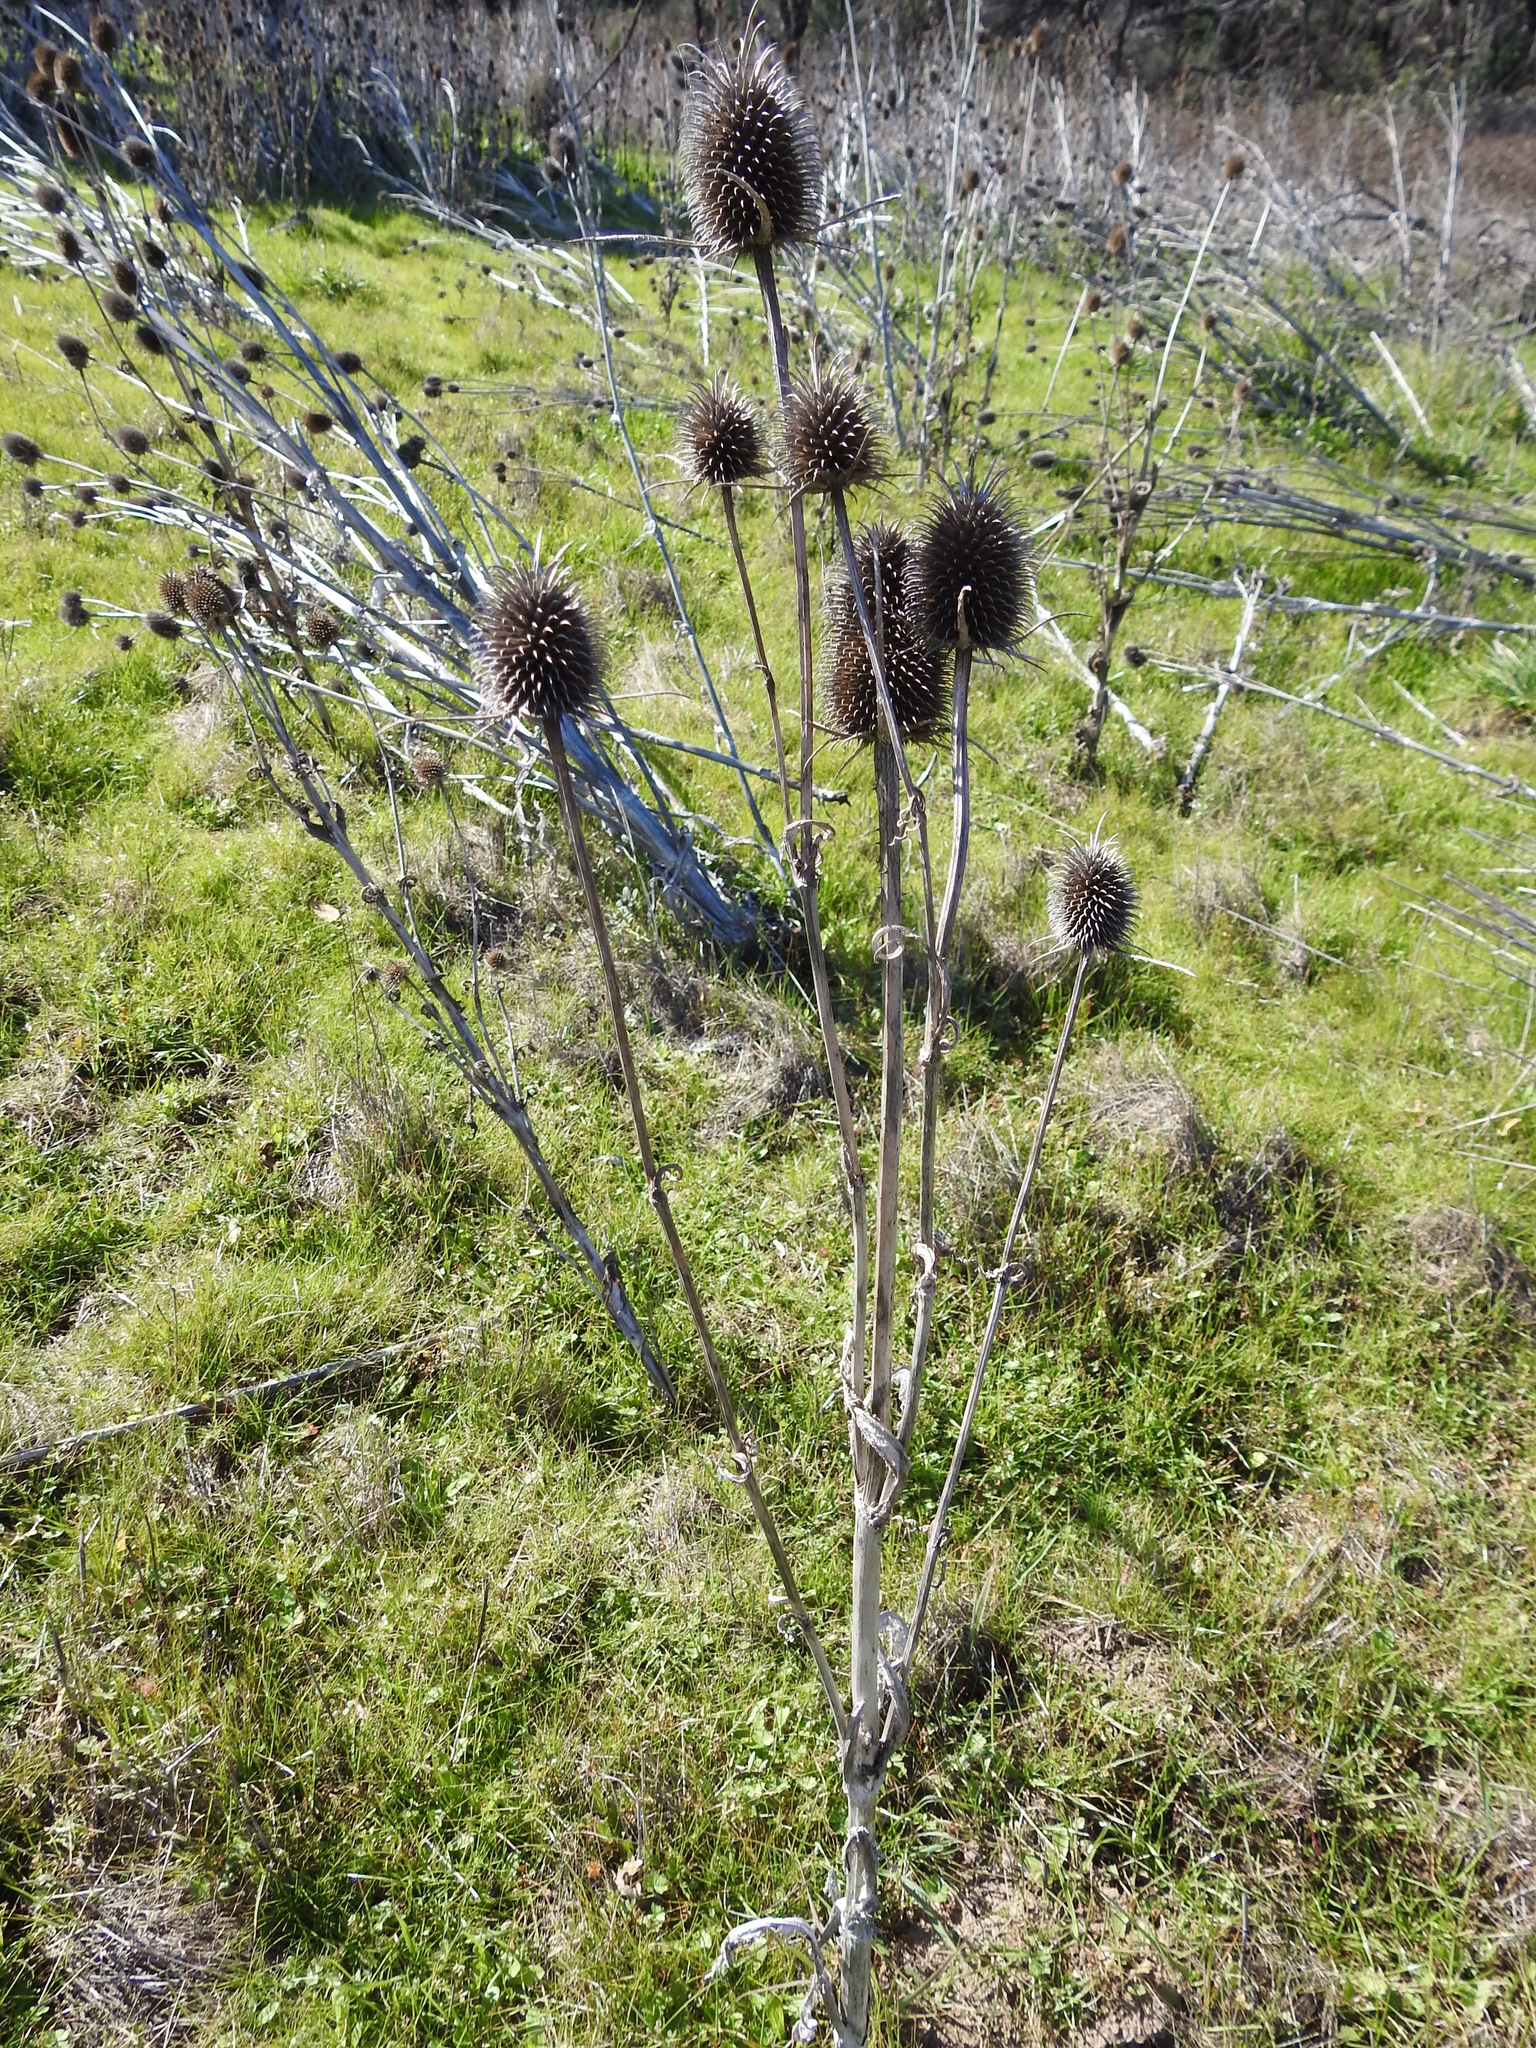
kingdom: Plantae
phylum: Tracheophyta
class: Magnoliopsida
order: Dipsacales
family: Caprifoliaceae
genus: Dipsacus
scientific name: Dipsacus sativus
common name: Fuller's teasel
